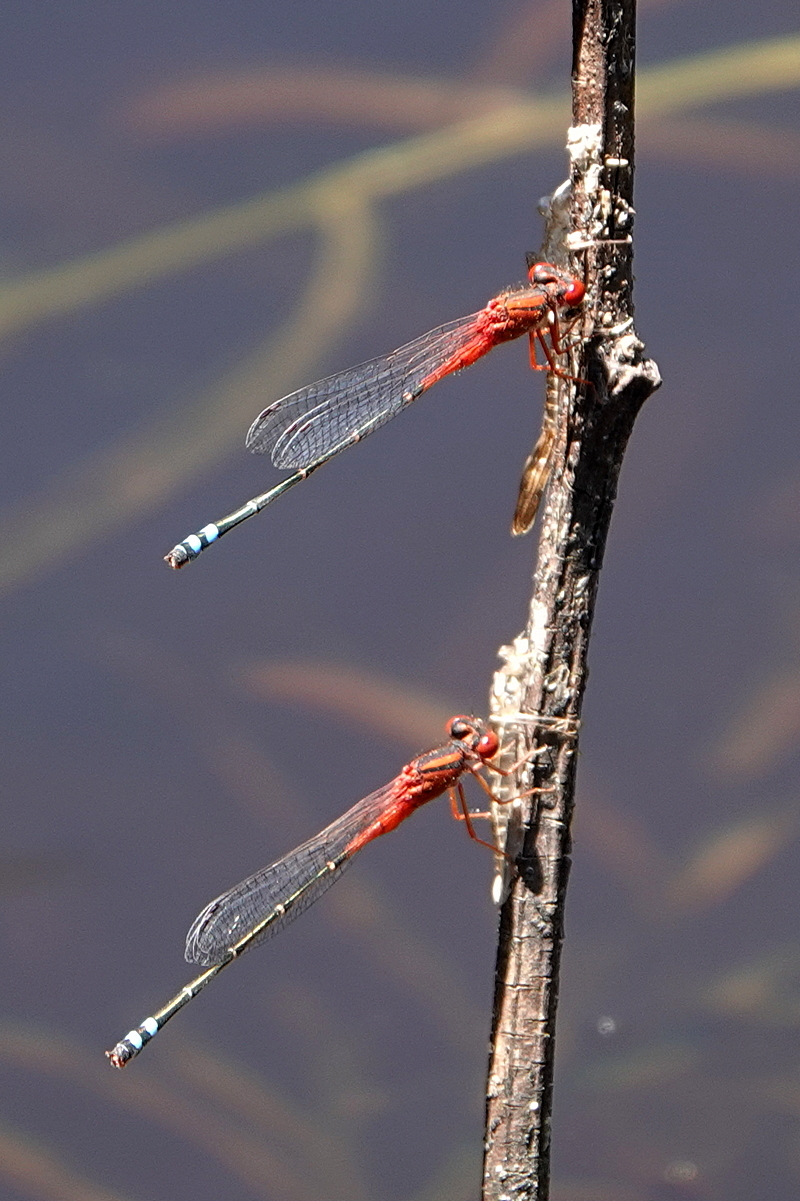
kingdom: Animalia
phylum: Arthropoda
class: Insecta
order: Odonata
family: Coenagrionidae
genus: Xanthagrion
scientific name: Xanthagrion erythroneurum
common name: Red and blue damsel
